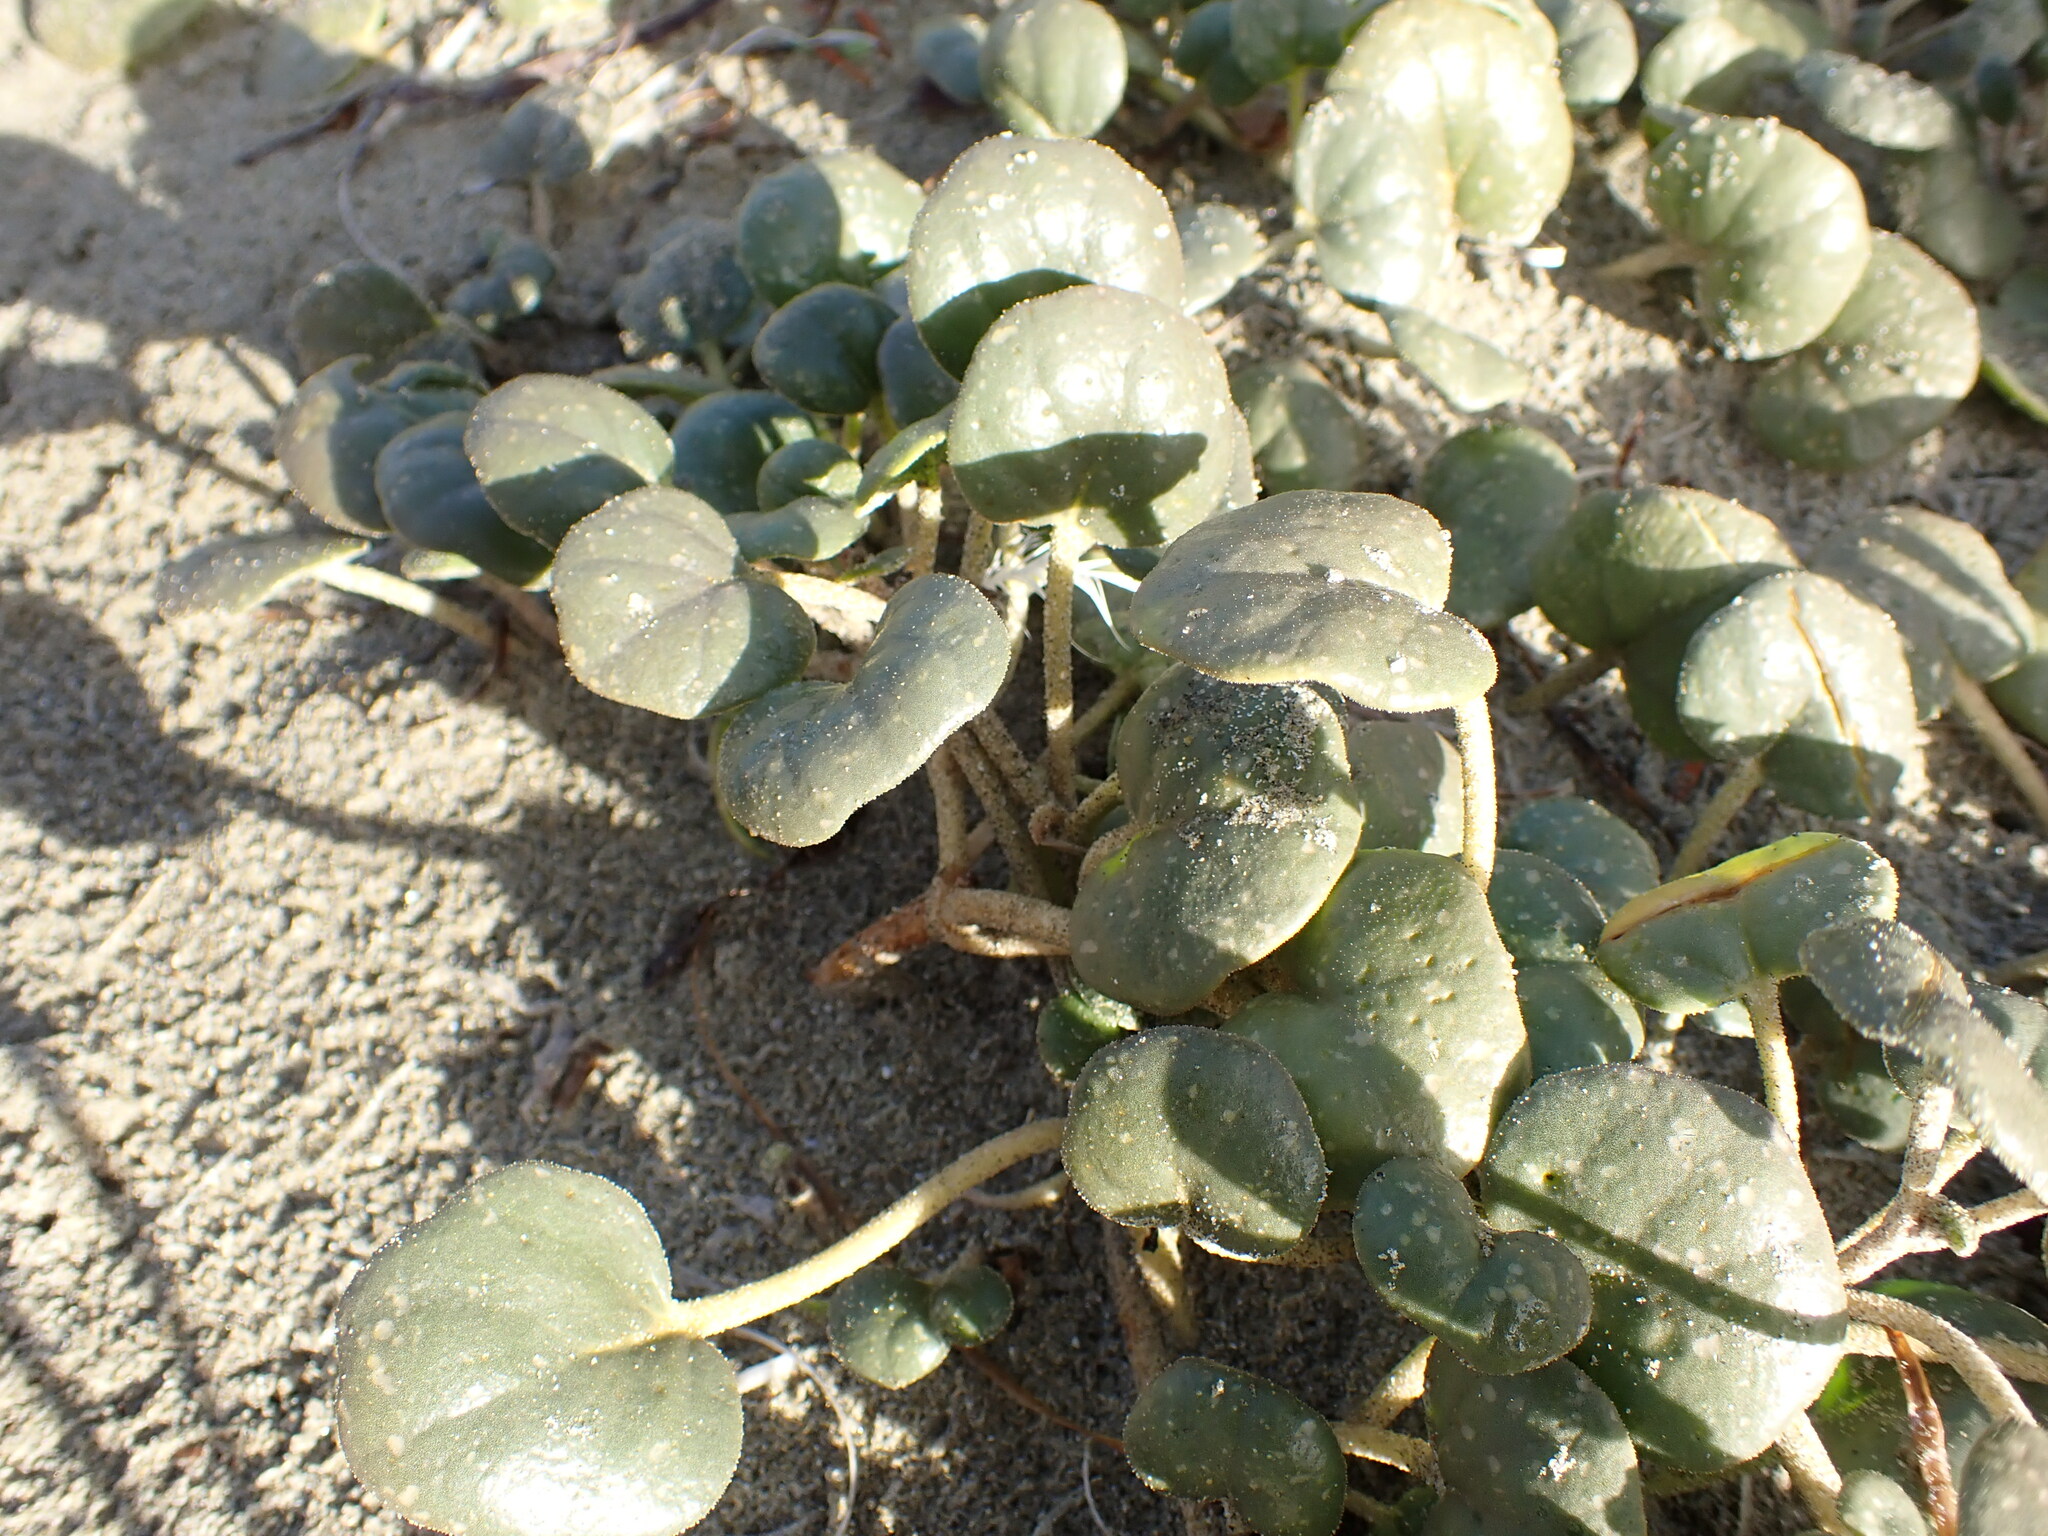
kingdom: Plantae
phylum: Tracheophyta
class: Magnoliopsida
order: Caryophyllales
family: Nyctaginaceae
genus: Abronia
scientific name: Abronia latifolia
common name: Yellow sand-verbena
